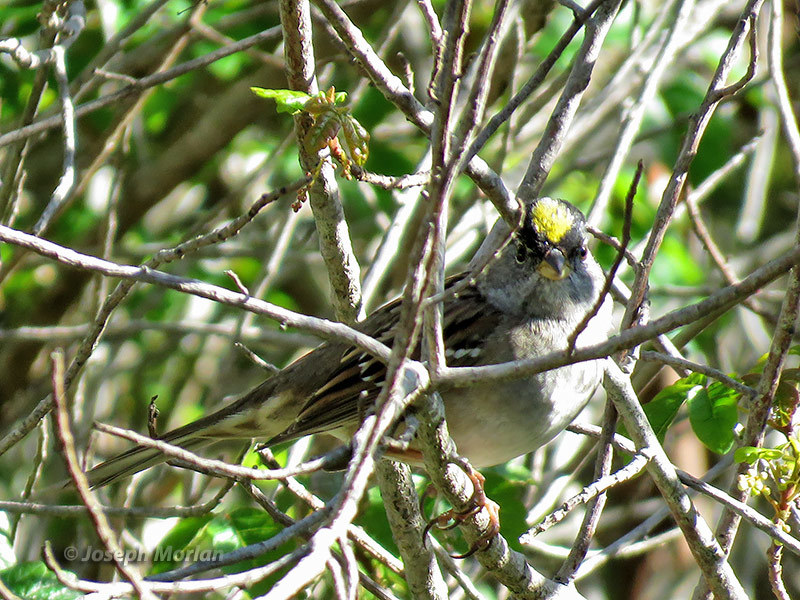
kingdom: Animalia
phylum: Chordata
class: Aves
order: Passeriformes
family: Passerellidae
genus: Zonotrichia
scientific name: Zonotrichia atricapilla
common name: Golden-crowned sparrow
